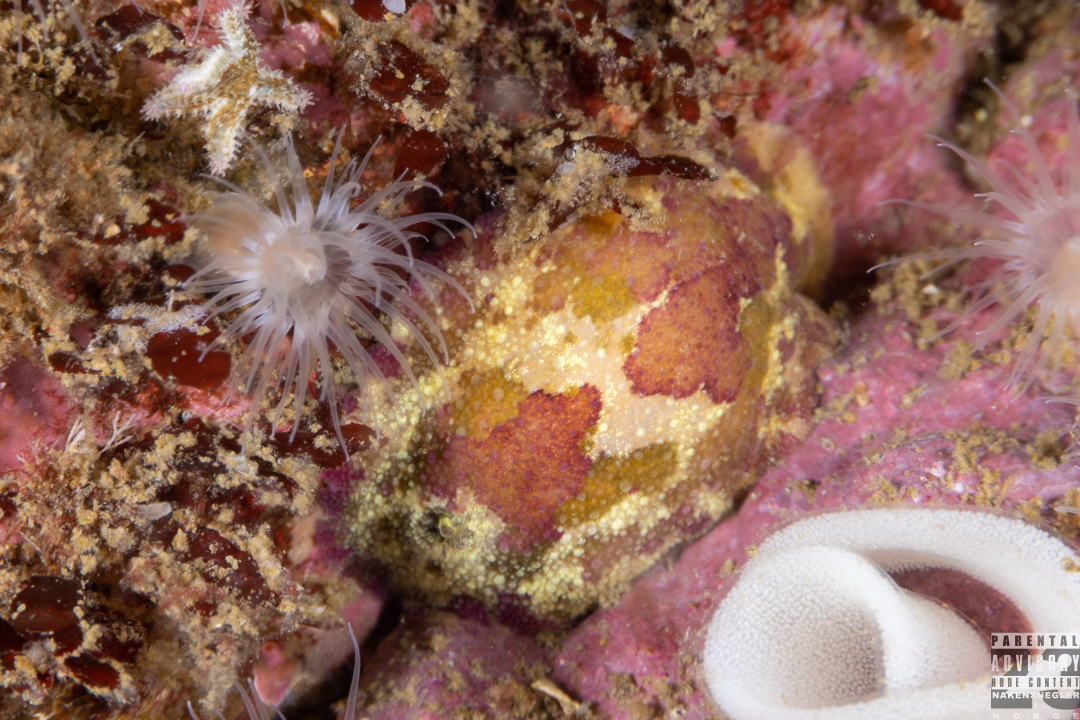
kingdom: Animalia
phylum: Mollusca
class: Gastropoda
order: Nudibranchia
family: Dorididae
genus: Doris
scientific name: Doris pseudoargus
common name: Sea lemon
